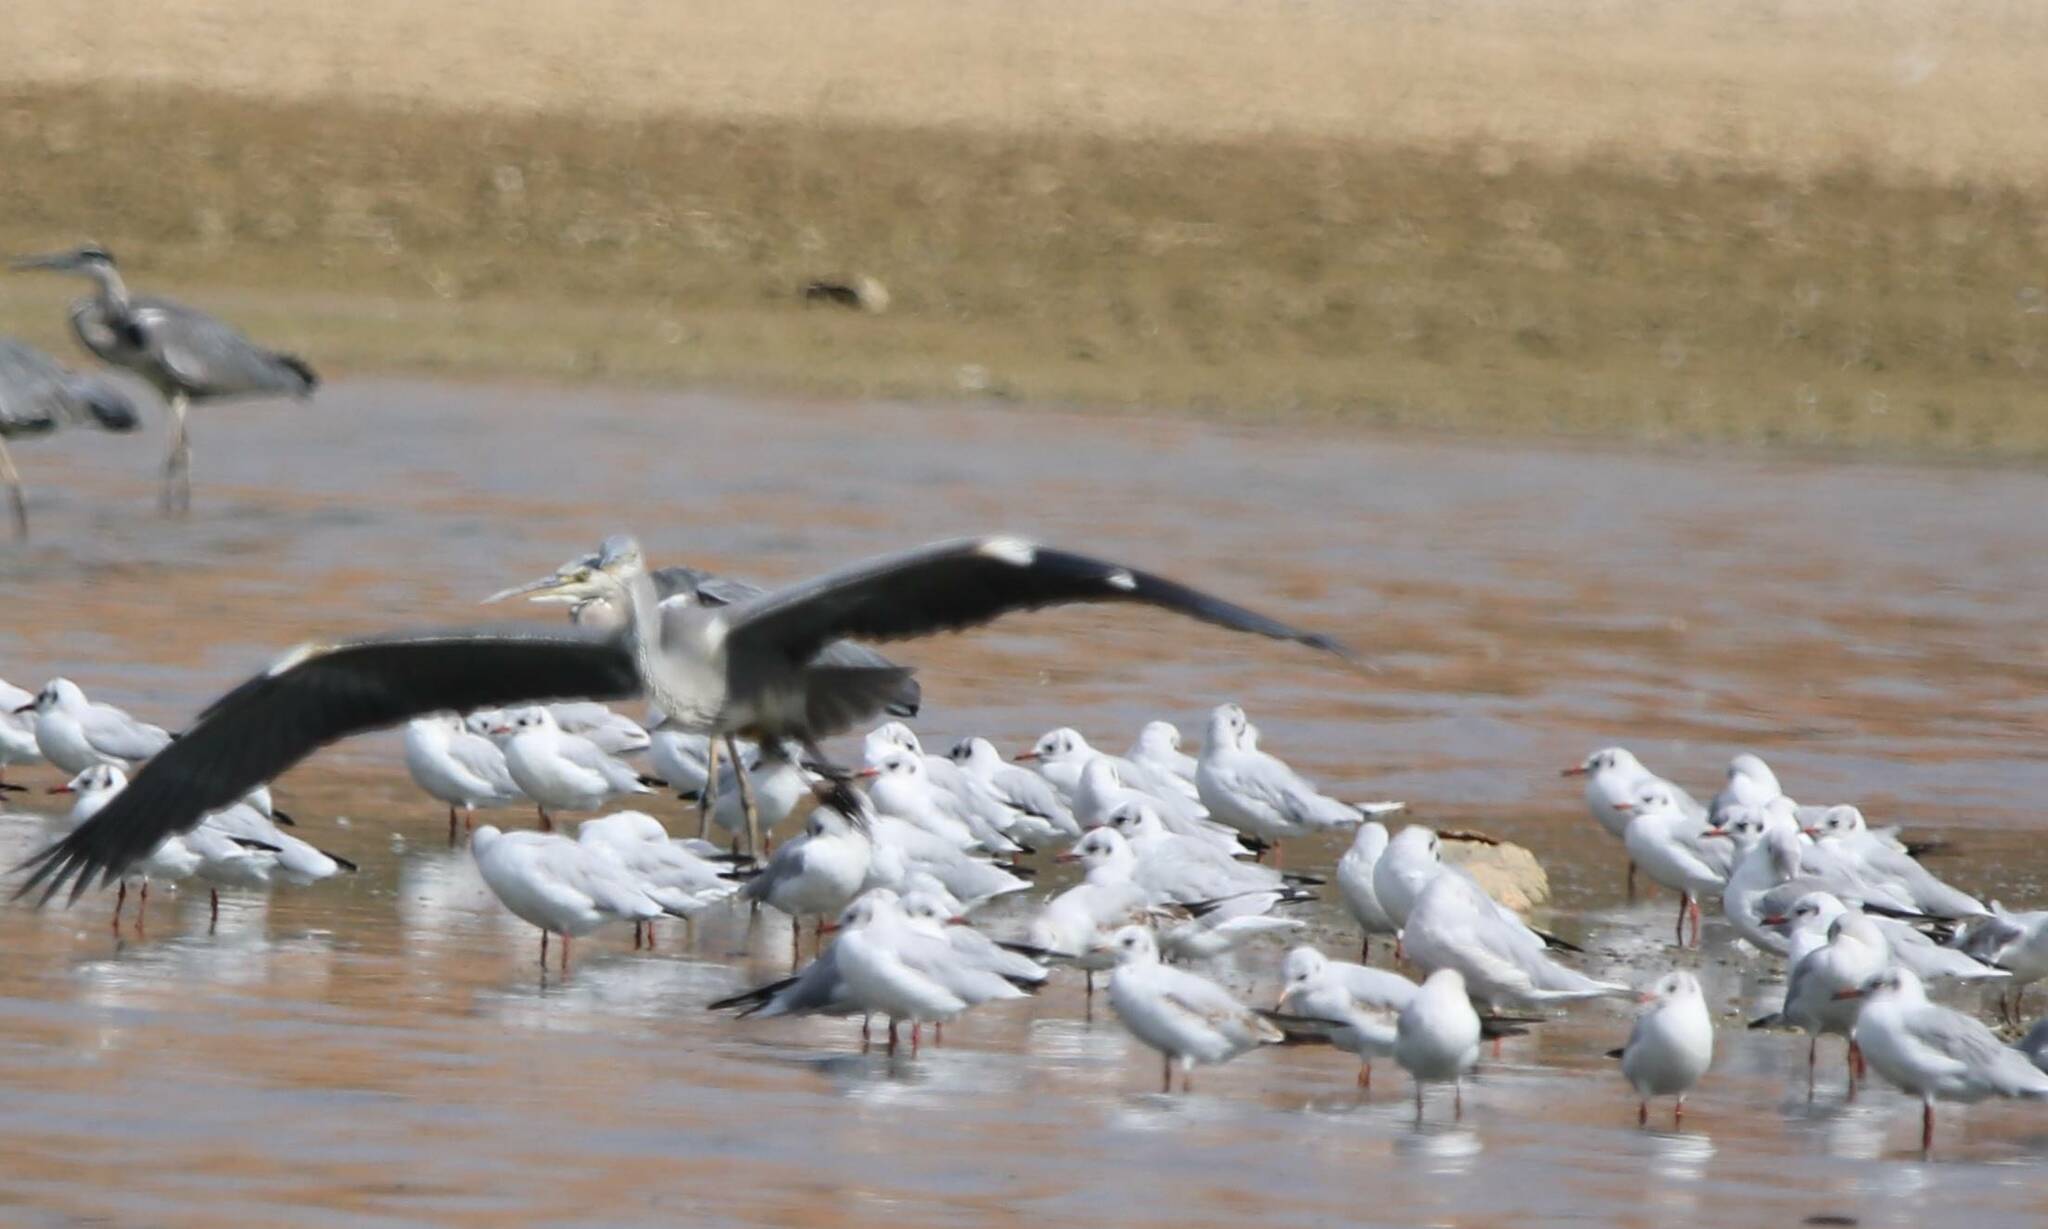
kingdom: Animalia
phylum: Chordata
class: Aves
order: Pelecaniformes
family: Ardeidae
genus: Ardea
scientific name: Ardea cinerea
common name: Grey heron
